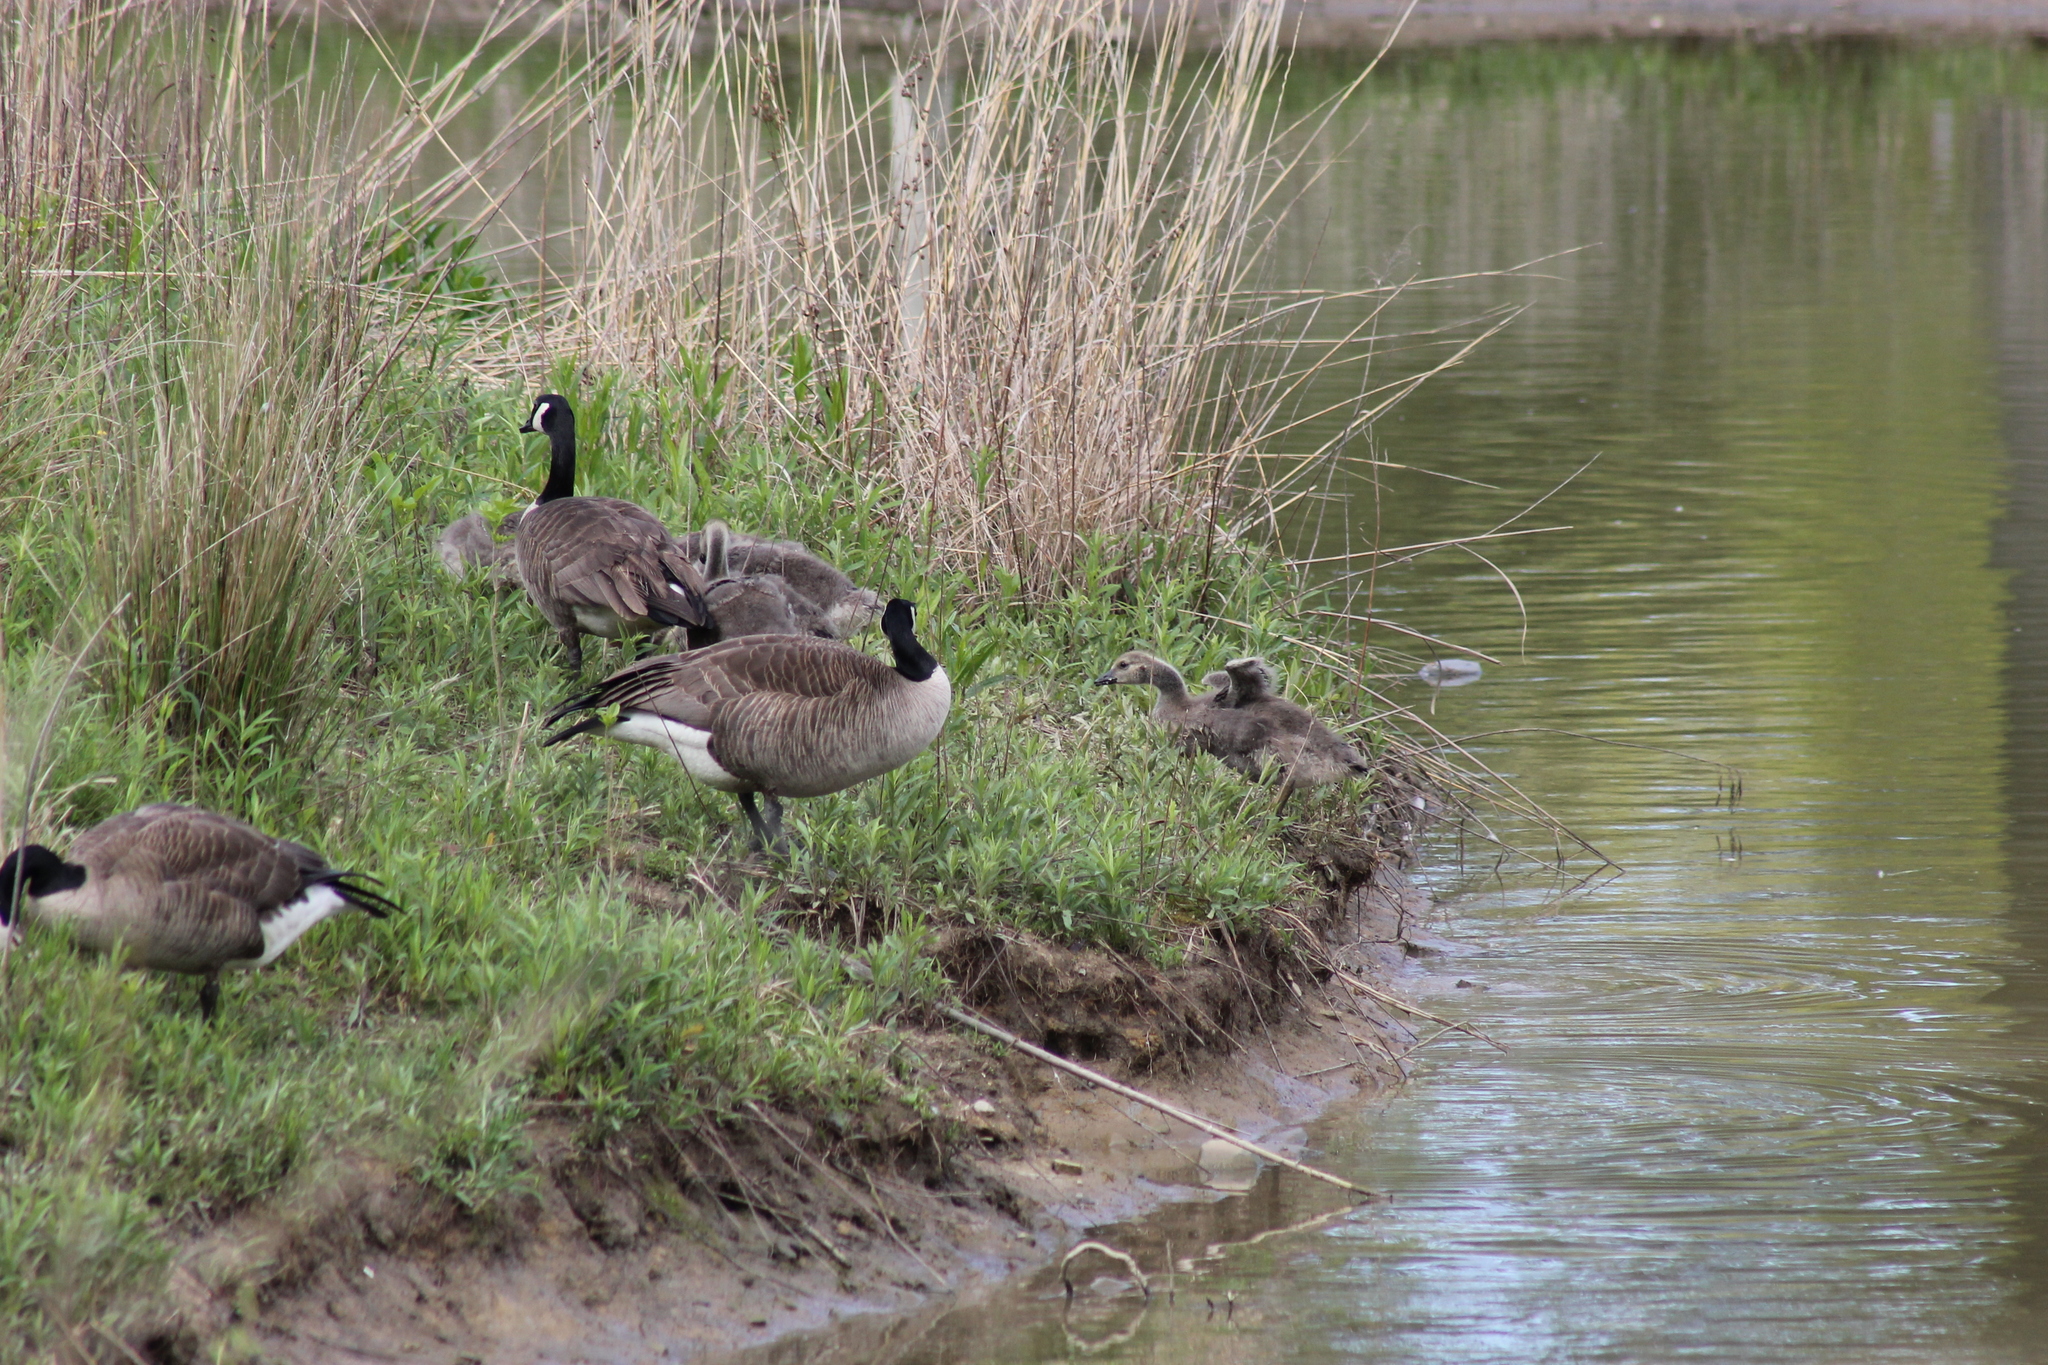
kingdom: Animalia
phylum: Chordata
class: Aves
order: Anseriformes
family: Anatidae
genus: Branta
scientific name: Branta canadensis
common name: Canada goose
